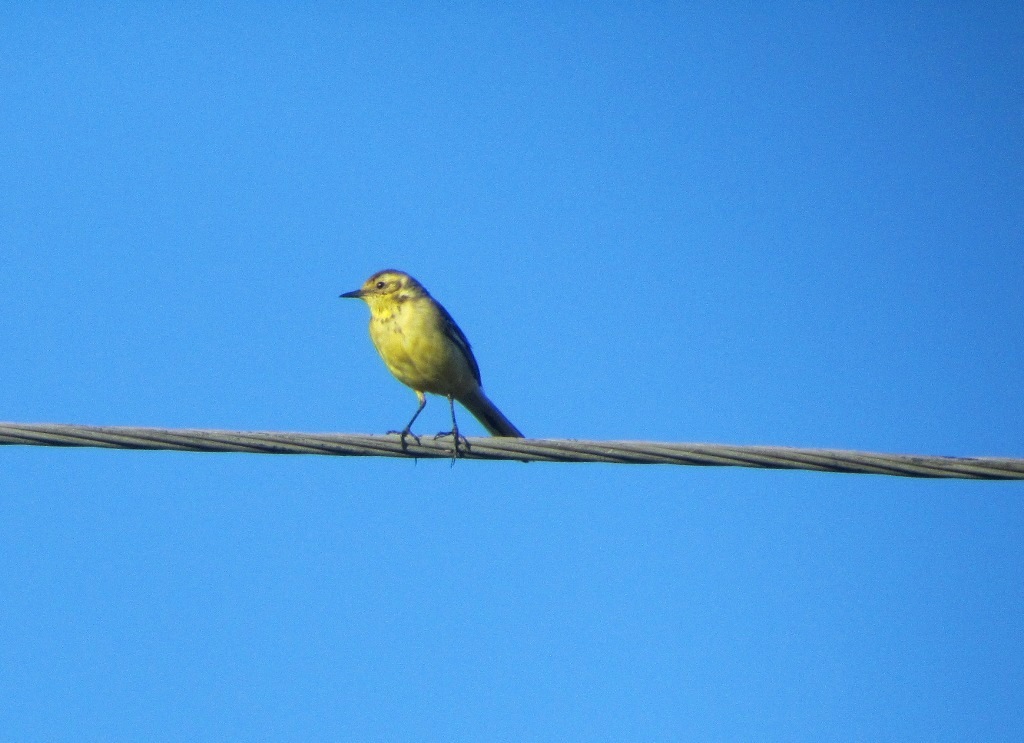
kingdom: Animalia
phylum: Chordata
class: Aves
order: Passeriformes
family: Motacillidae
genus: Motacilla
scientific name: Motacilla citreola
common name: Citrine wagtail
